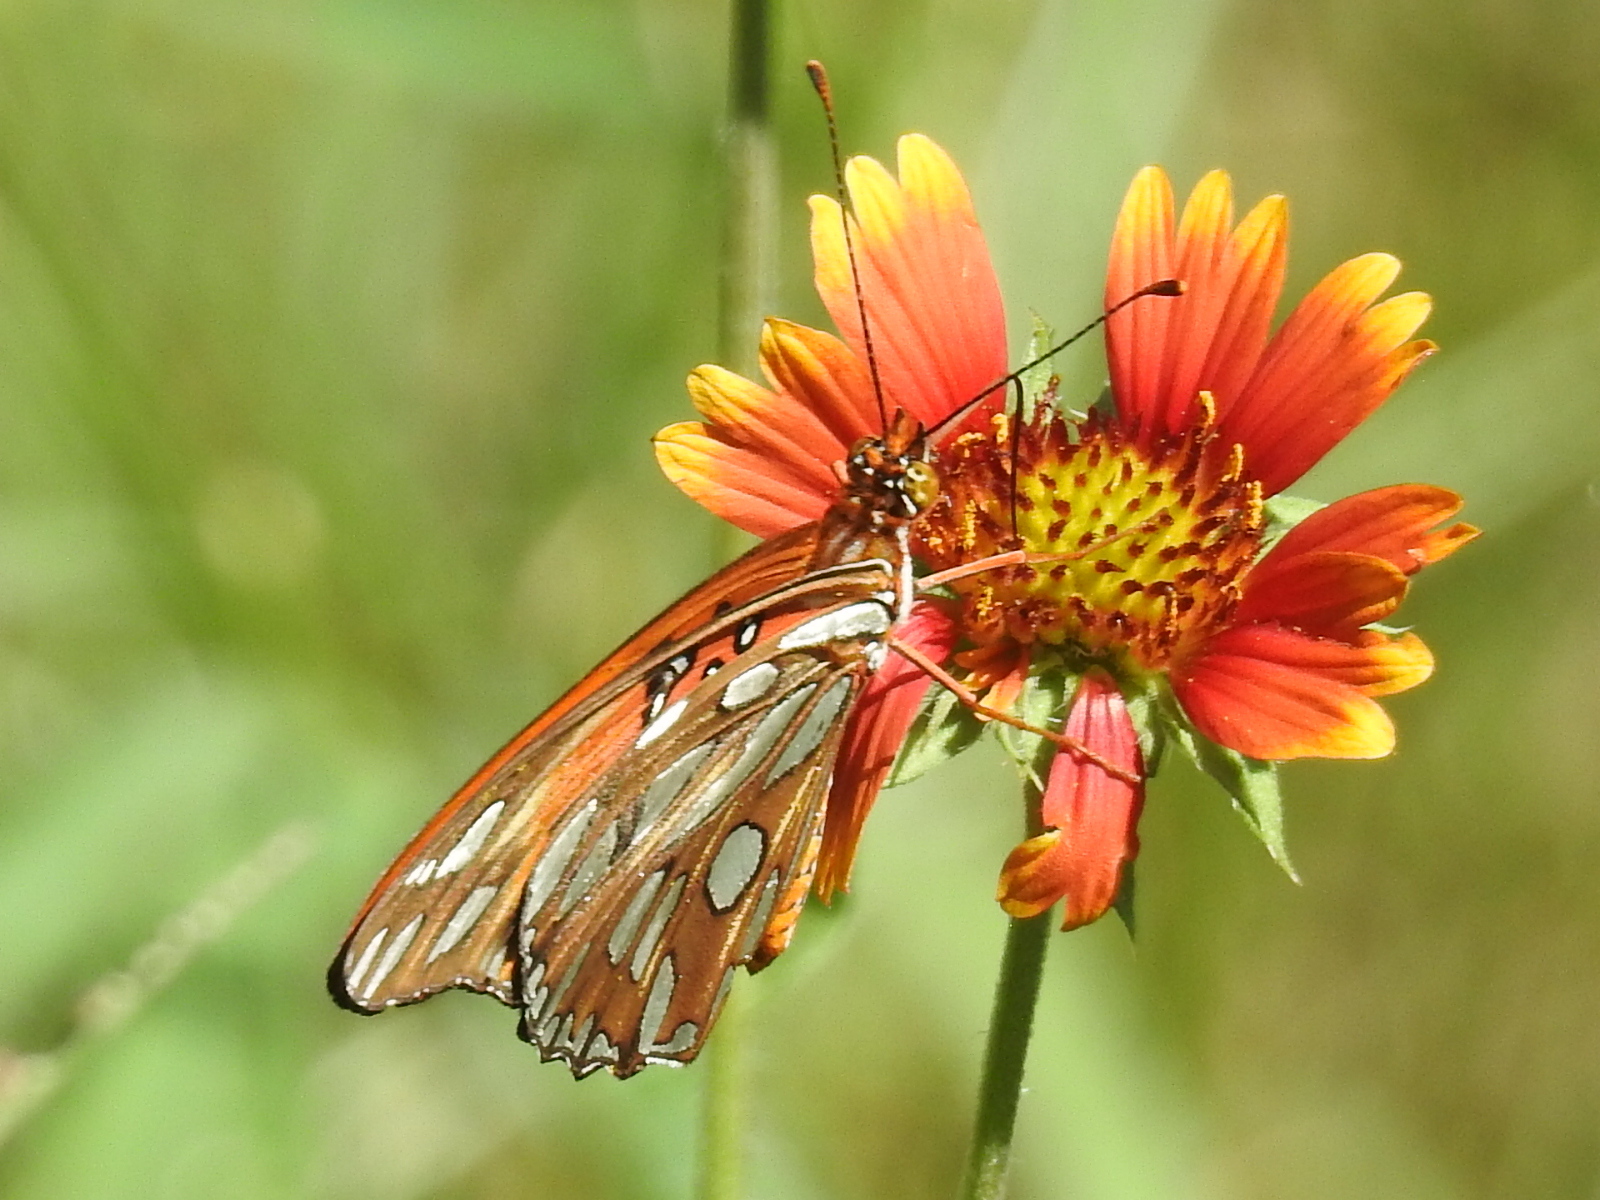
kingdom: Animalia
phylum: Arthropoda
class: Insecta
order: Lepidoptera
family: Nymphalidae
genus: Dione
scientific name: Dione vanillae
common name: Gulf fritillary
